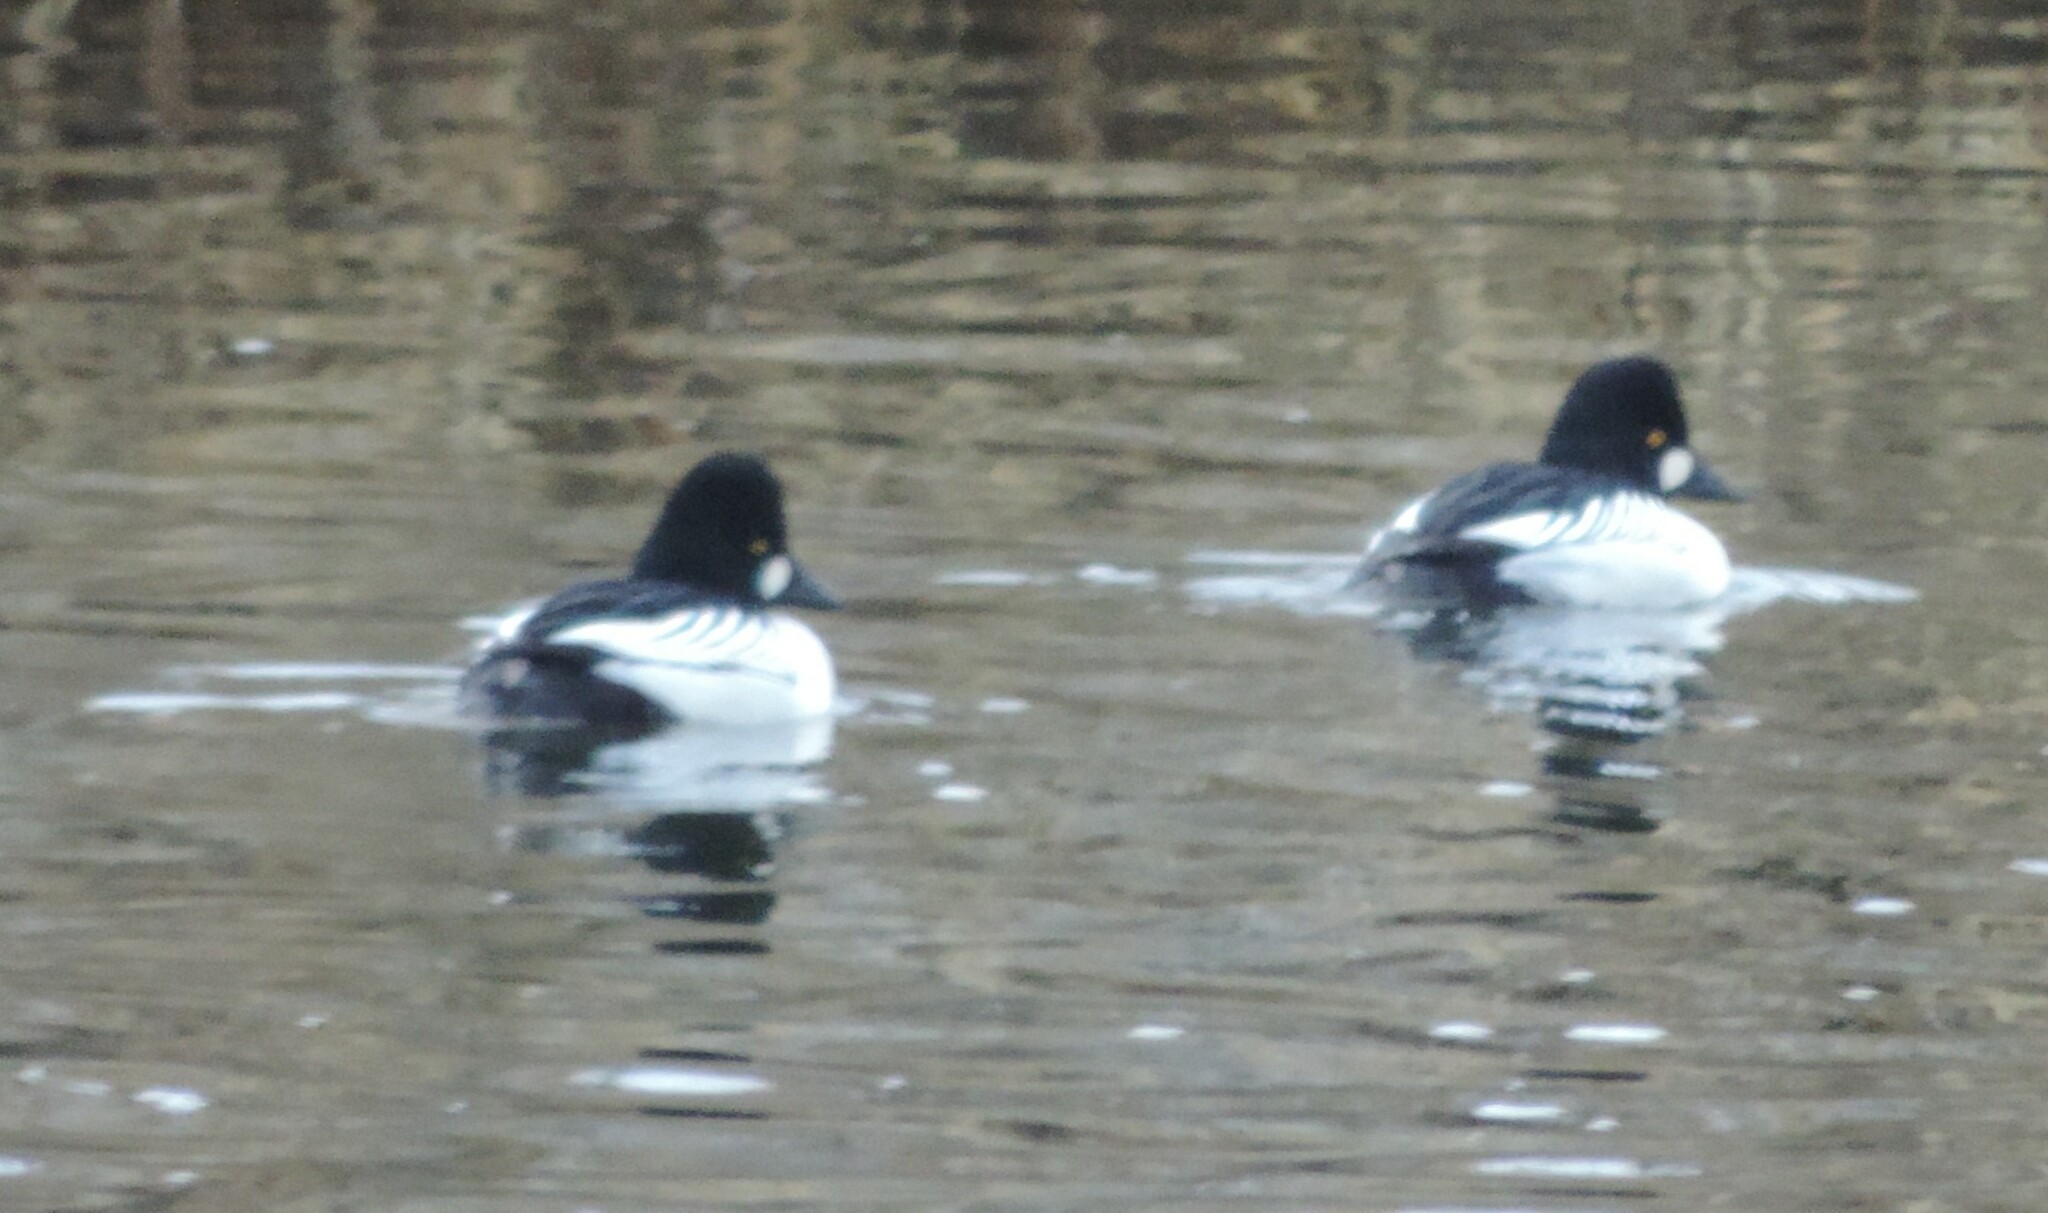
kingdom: Animalia
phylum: Chordata
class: Aves
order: Anseriformes
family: Anatidae
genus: Bucephala
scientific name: Bucephala clangula
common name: Common goldeneye
